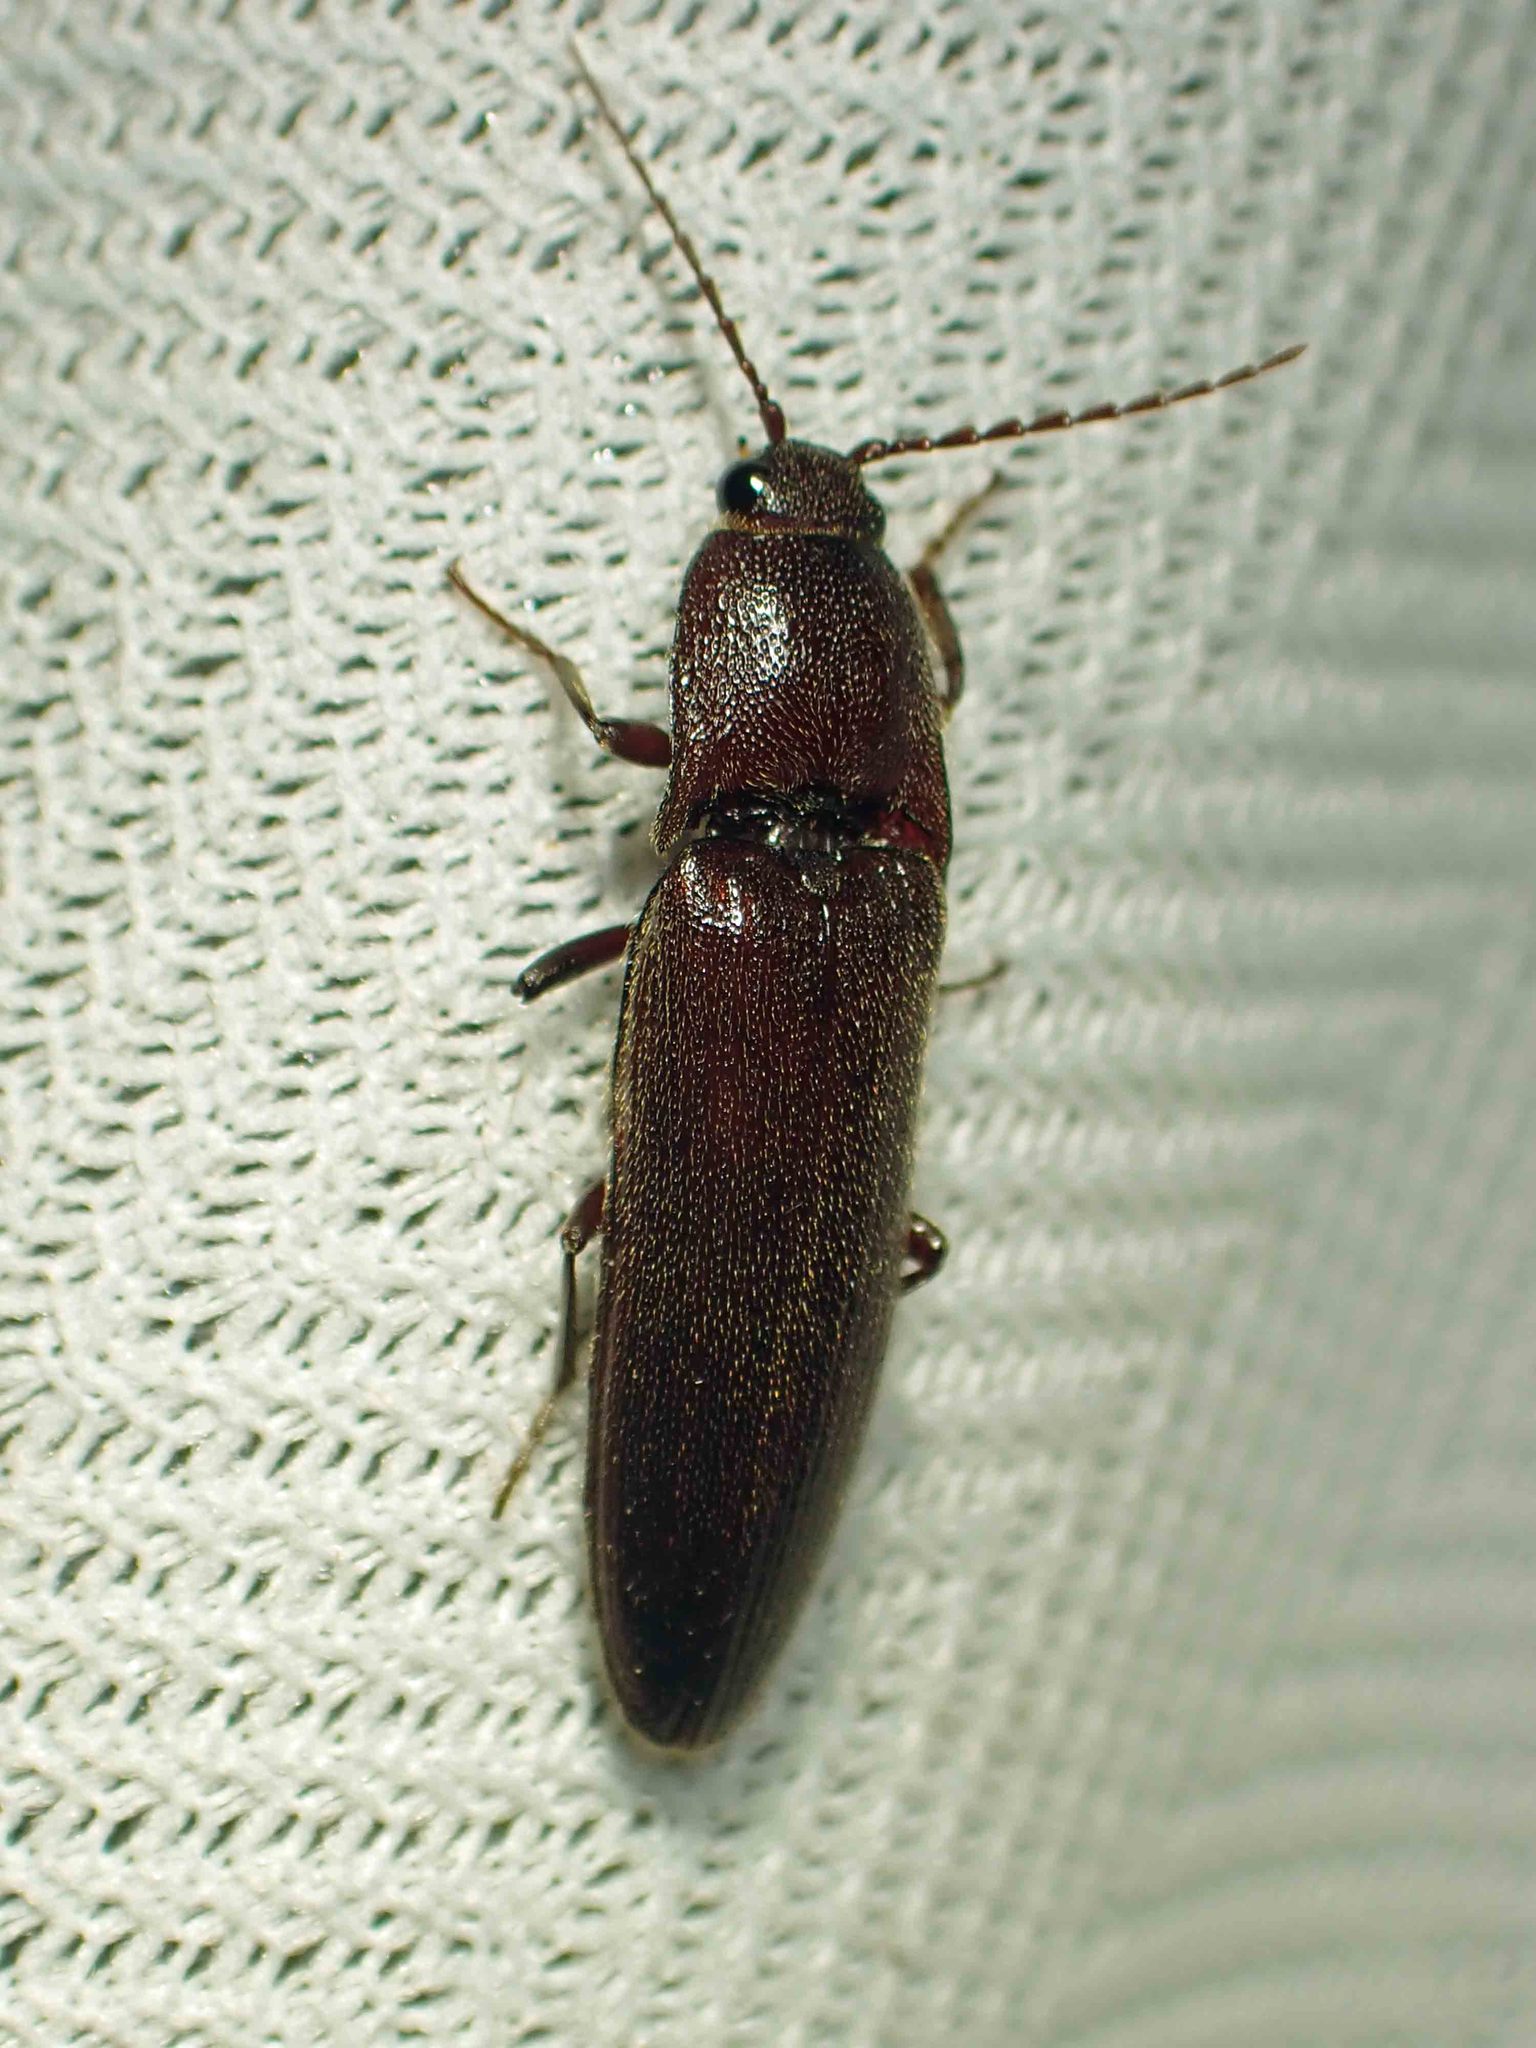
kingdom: Animalia
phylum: Arthropoda
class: Insecta
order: Coleoptera
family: Elateridae
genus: Melanotus
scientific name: Melanotus castanipes
